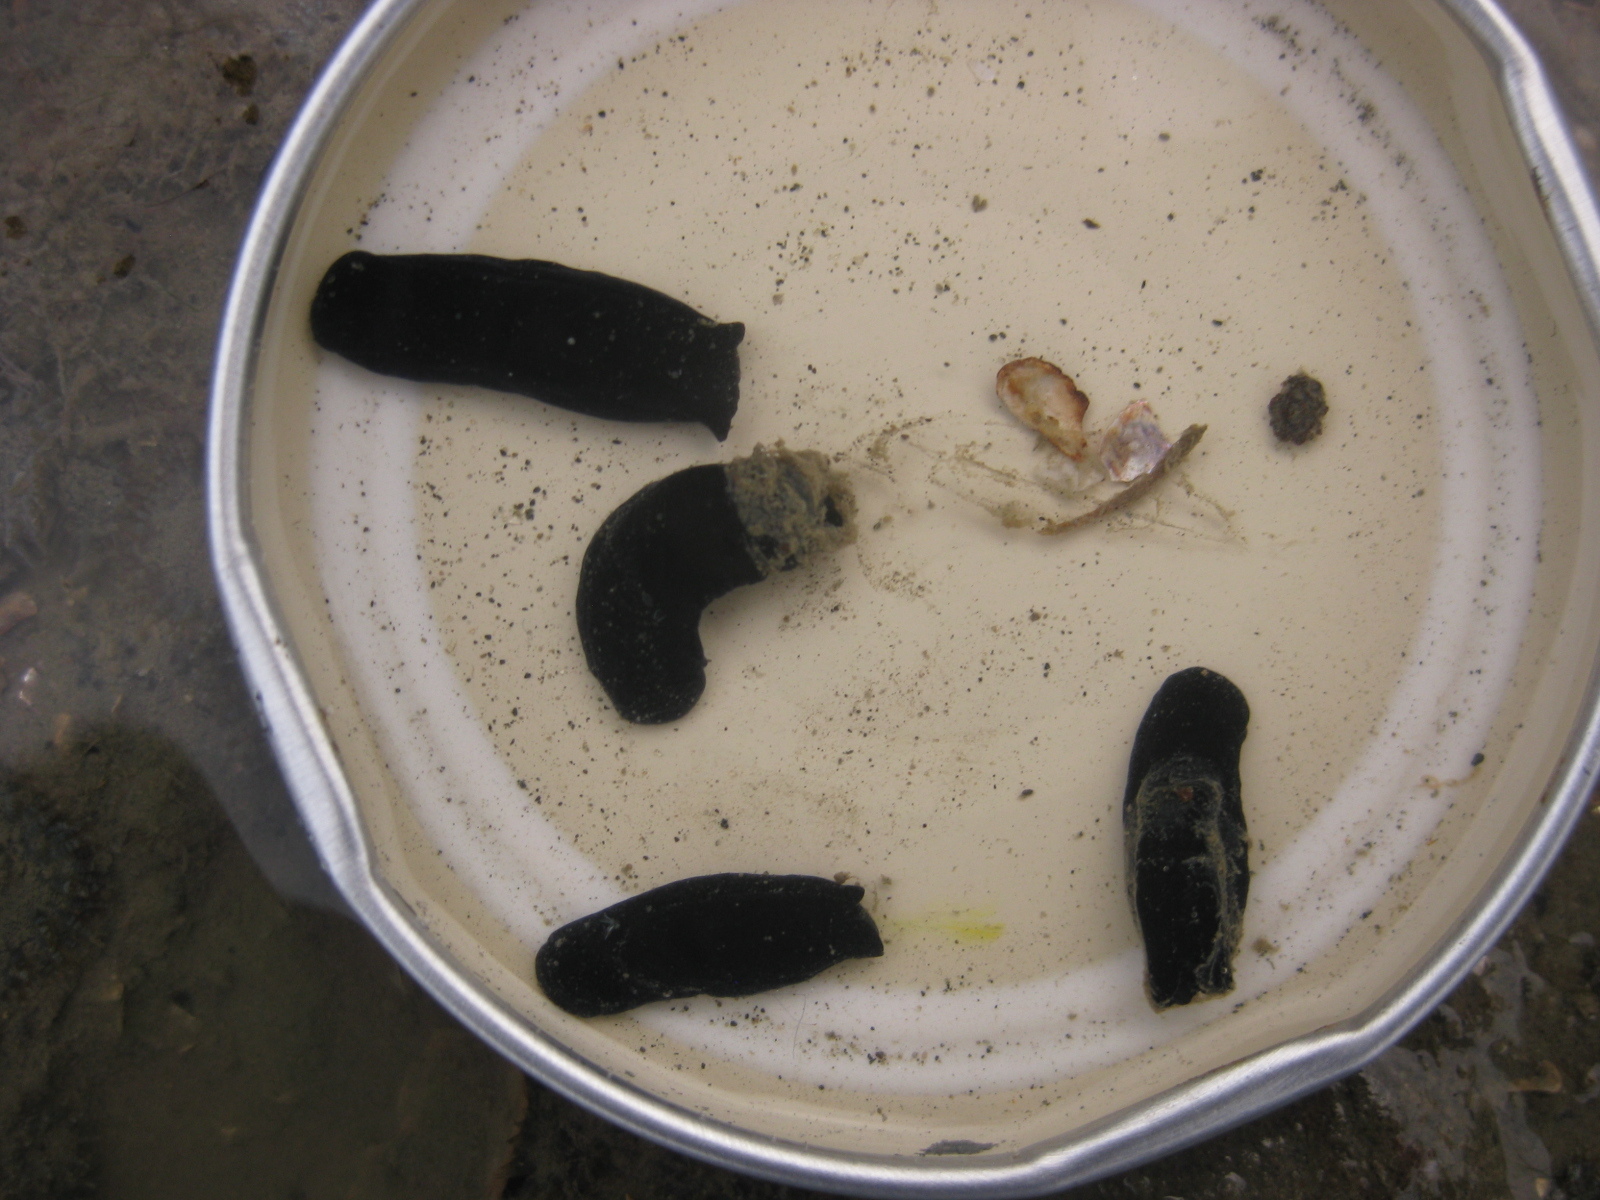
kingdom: Animalia
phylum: Mollusca
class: Gastropoda
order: Cephalaspidea
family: Aglajidae
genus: Melanochlamys
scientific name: Melanochlamys cylindrica
